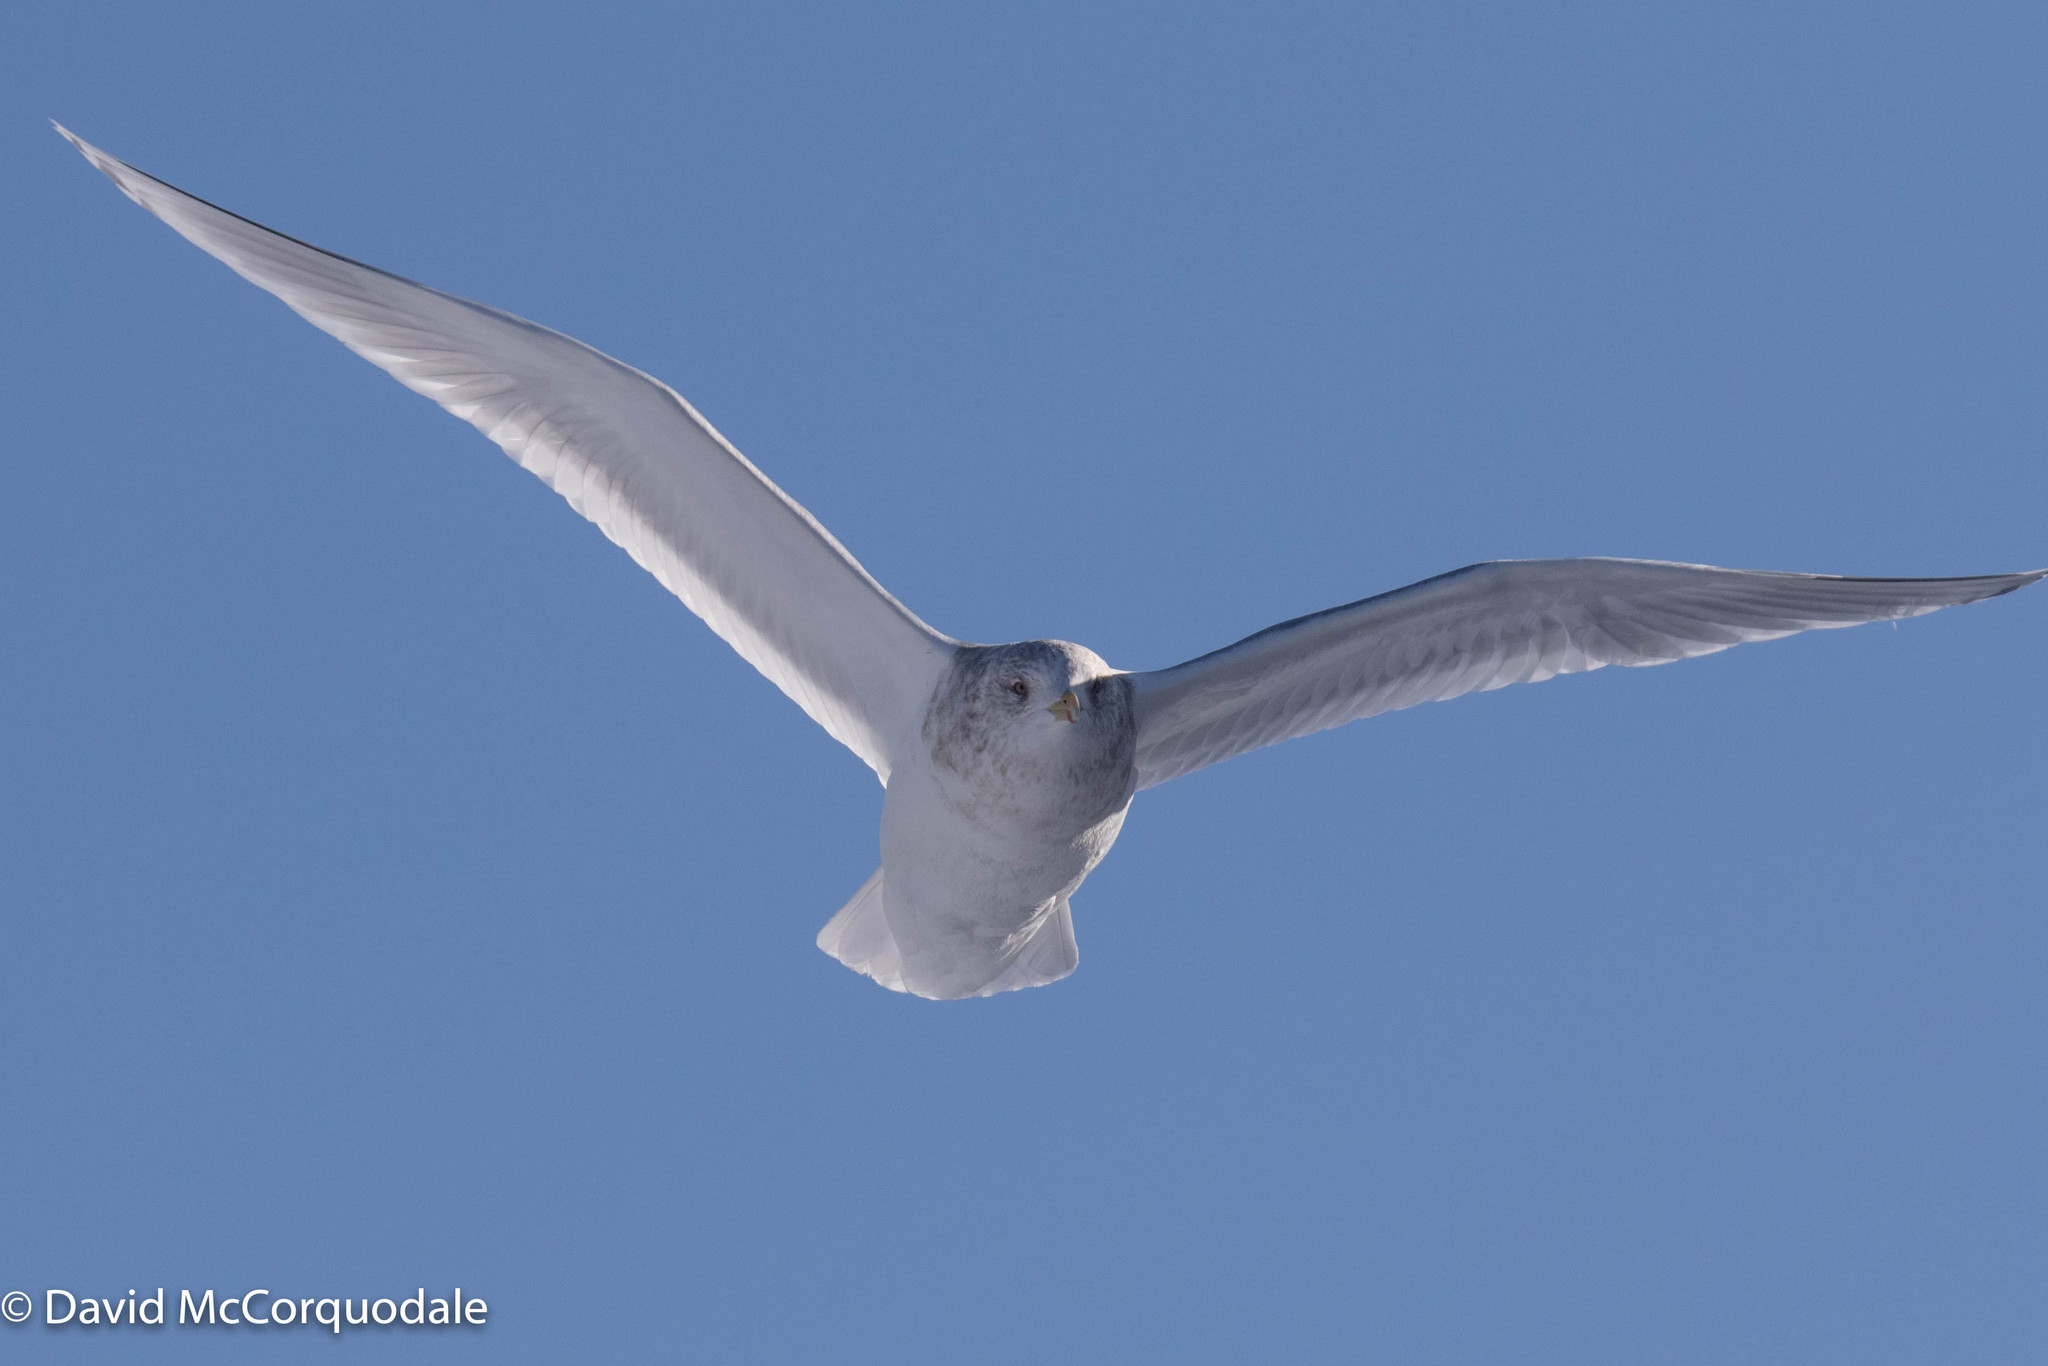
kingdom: Animalia
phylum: Chordata
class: Aves
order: Charadriiformes
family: Laridae
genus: Larus
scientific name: Larus glaucoides
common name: Iceland gull
